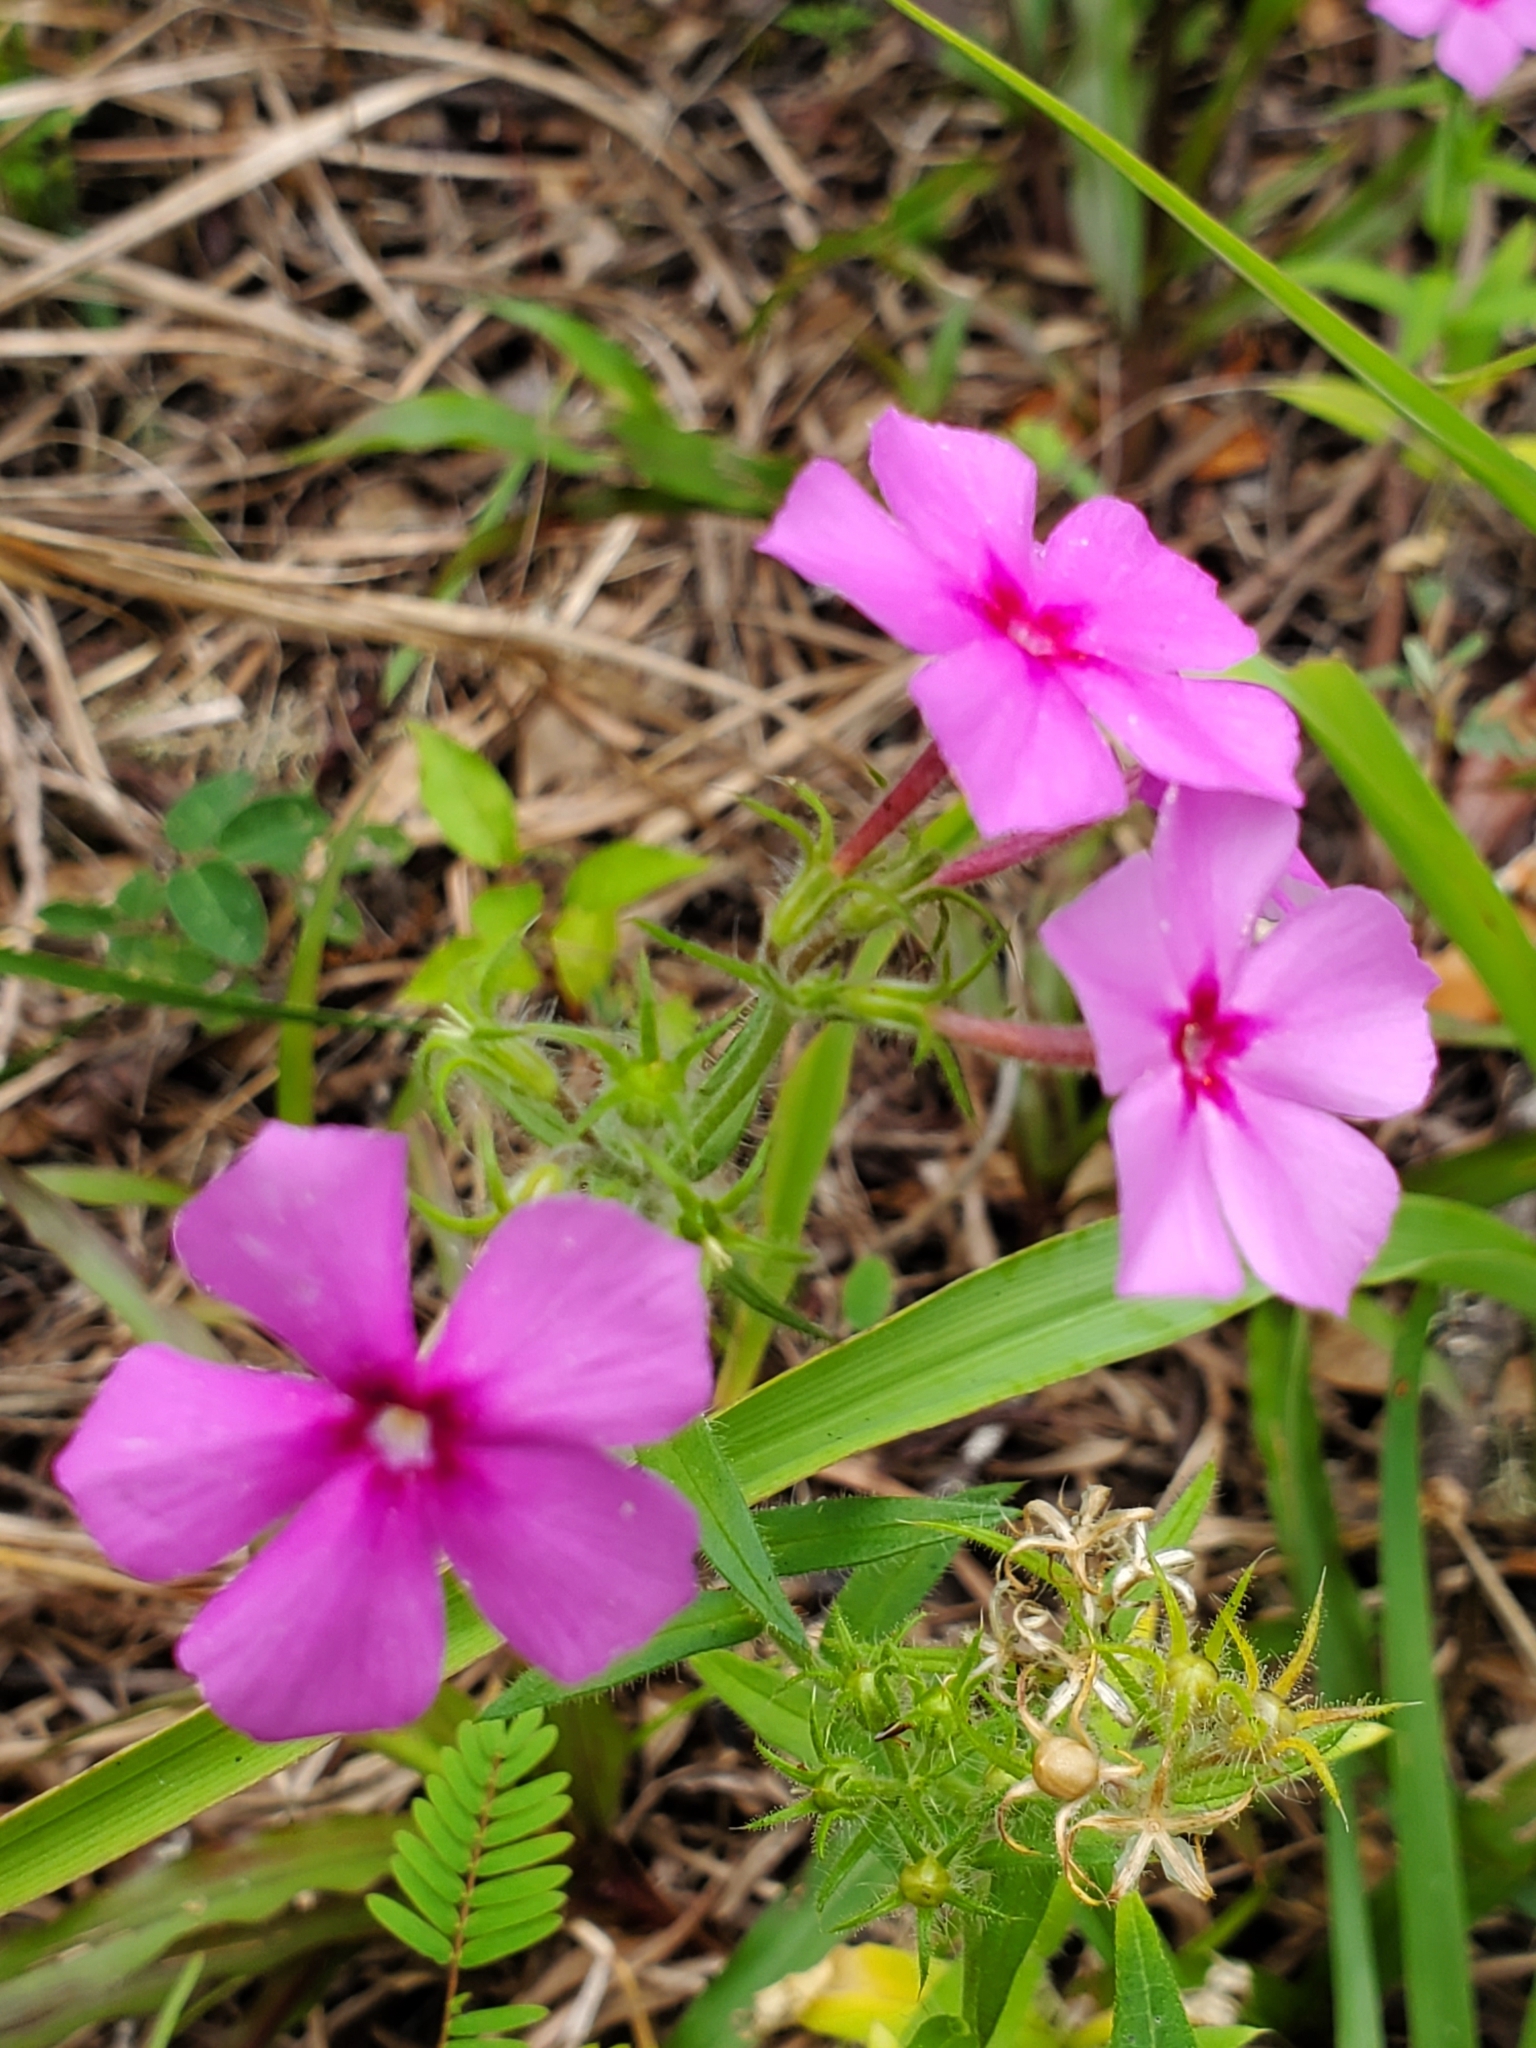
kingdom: Plantae
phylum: Tracheophyta
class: Magnoliopsida
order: Ericales
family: Polemoniaceae
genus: Phlox
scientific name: Phlox drummondii
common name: Drummond's phlox
